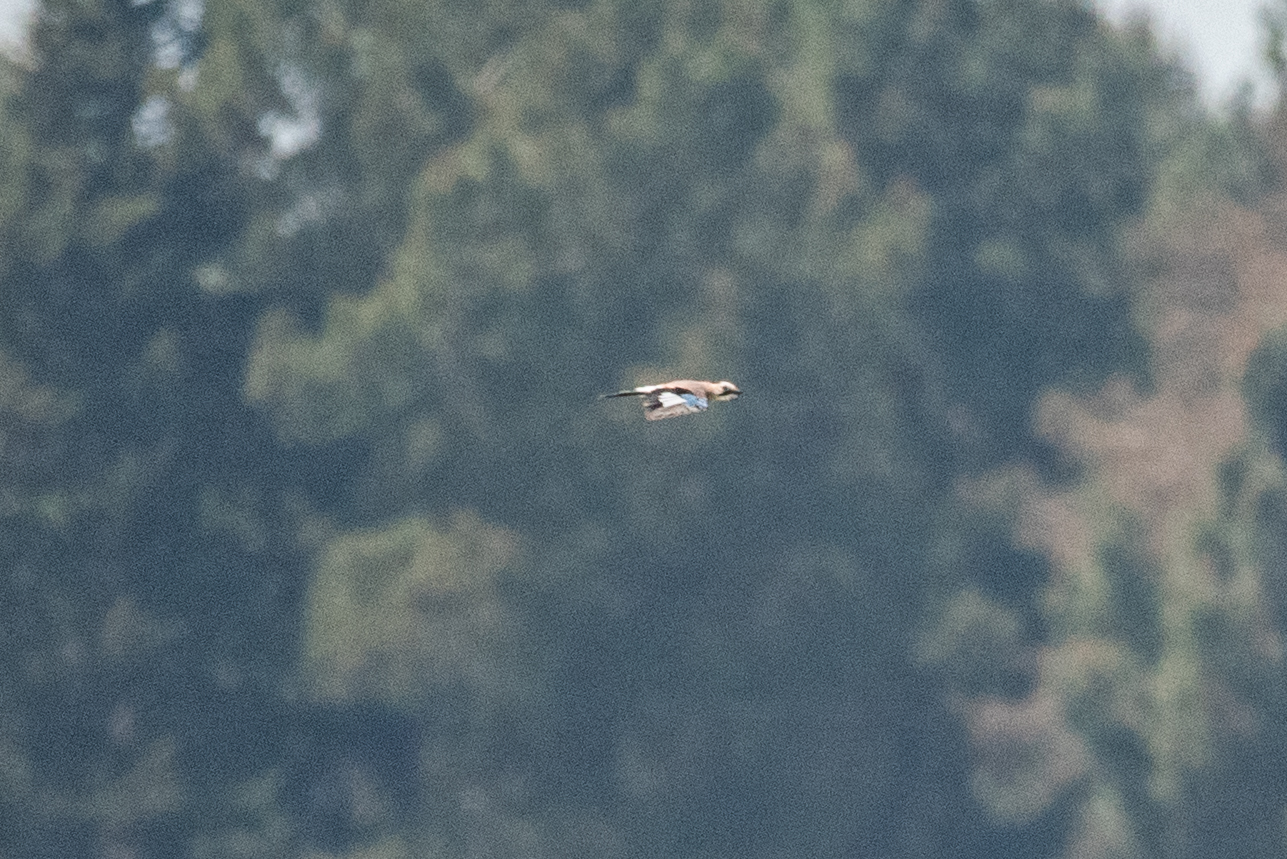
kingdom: Animalia
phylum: Chordata
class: Aves
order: Passeriformes
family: Corvidae
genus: Garrulus
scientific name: Garrulus glandarius
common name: Eurasian jay
